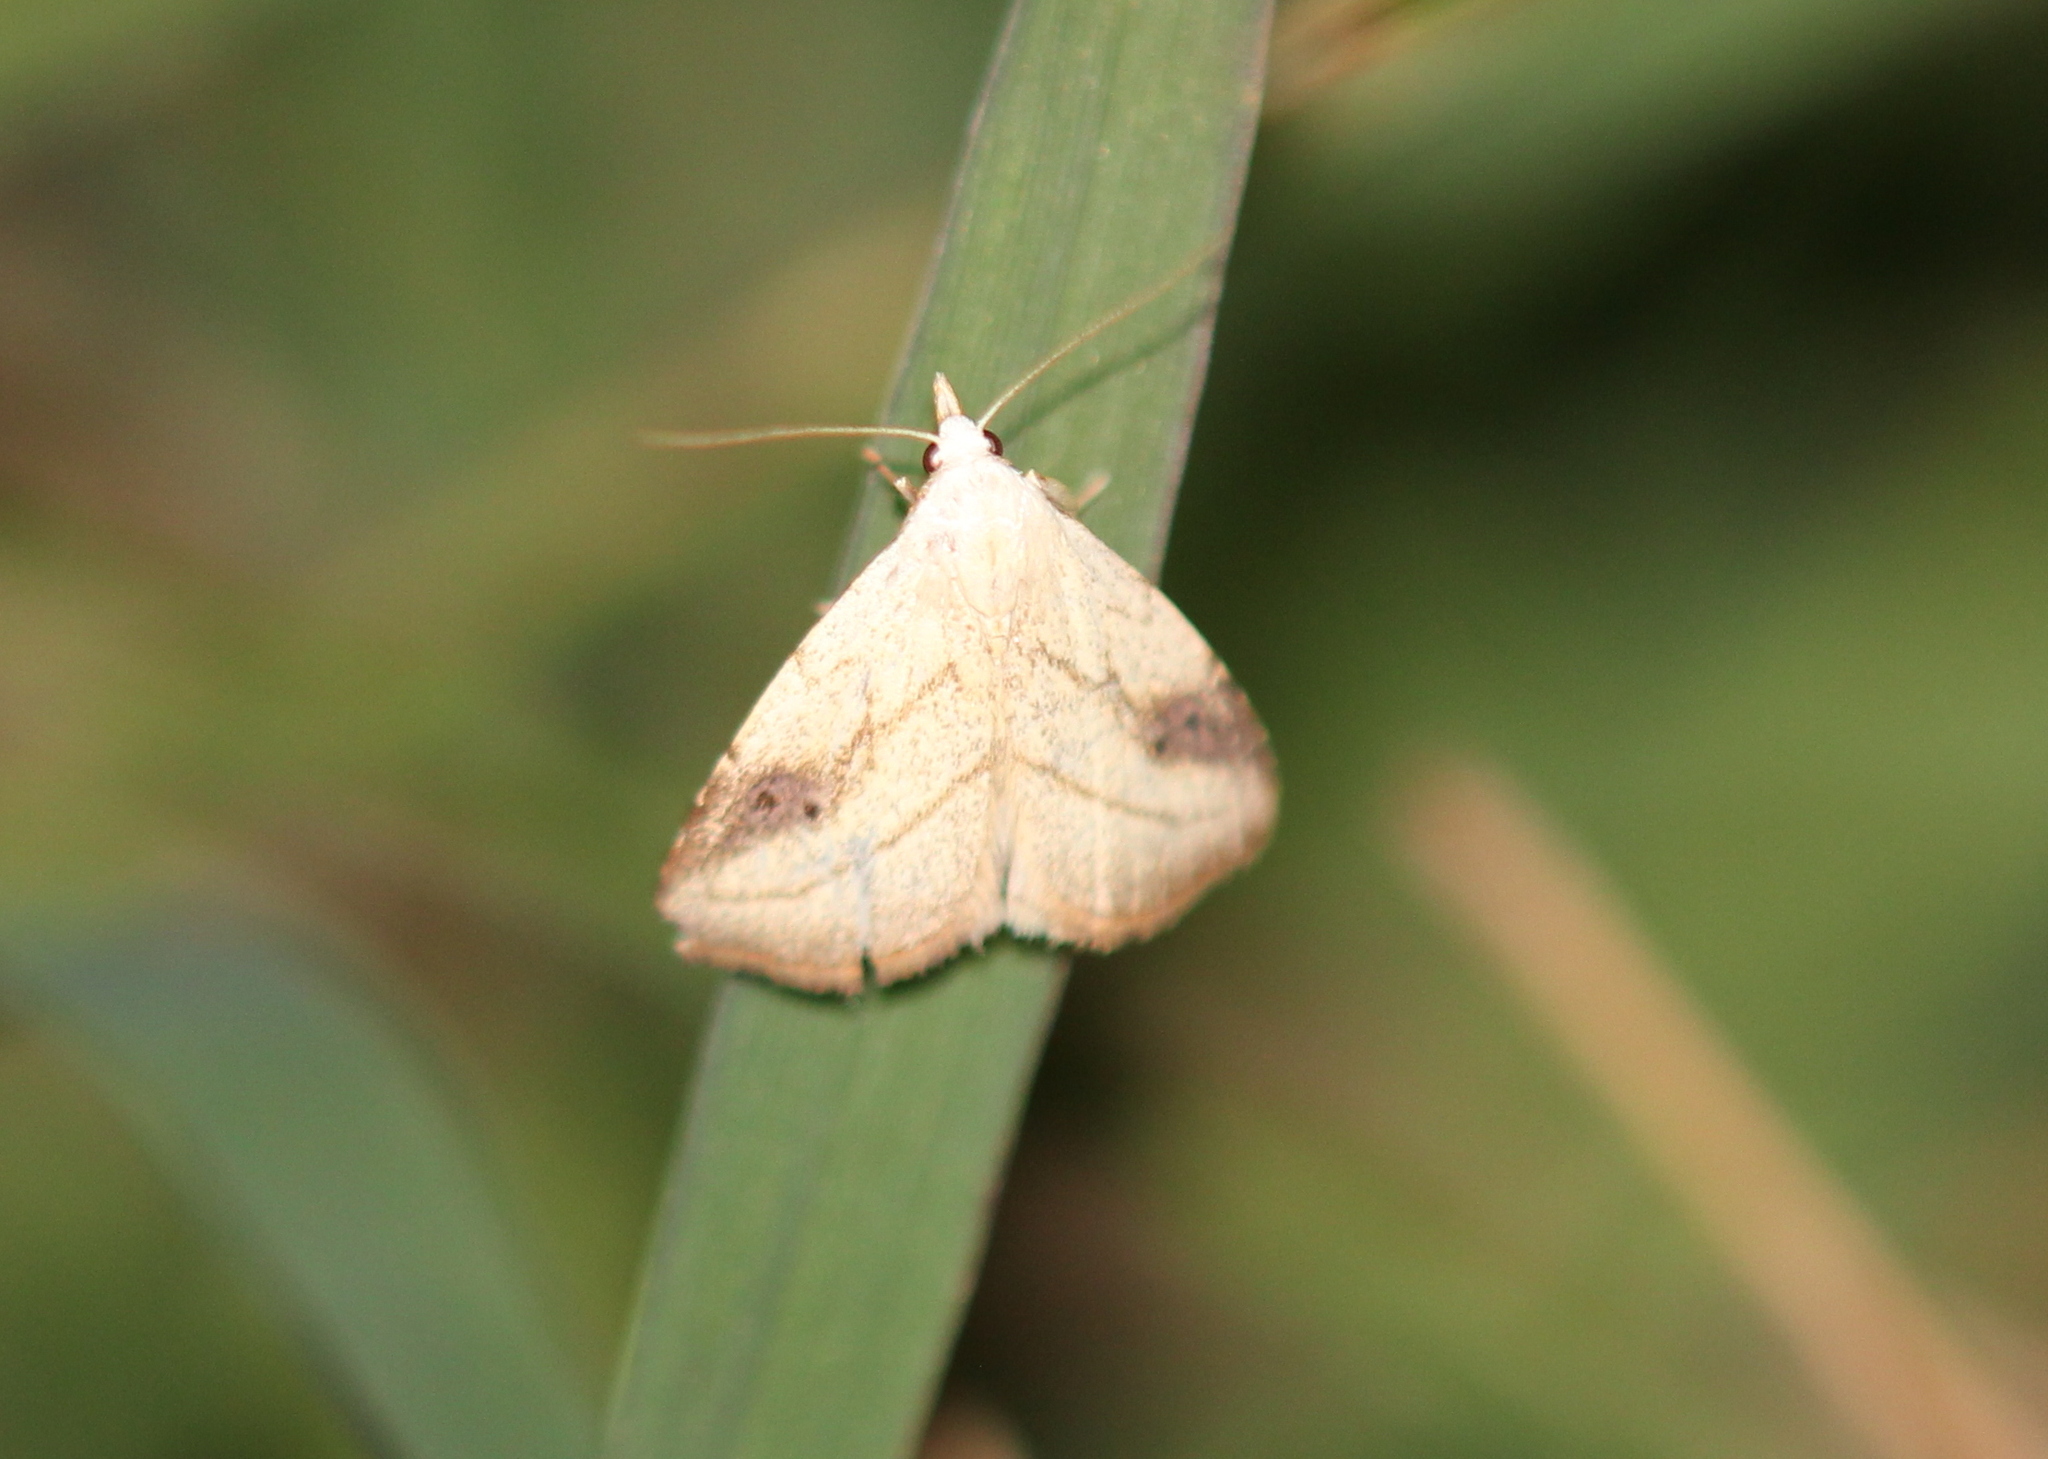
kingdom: Animalia
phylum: Arthropoda
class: Insecta
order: Lepidoptera
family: Erebidae
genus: Rivula
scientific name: Rivula propinqualis
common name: Spotted grass moth
